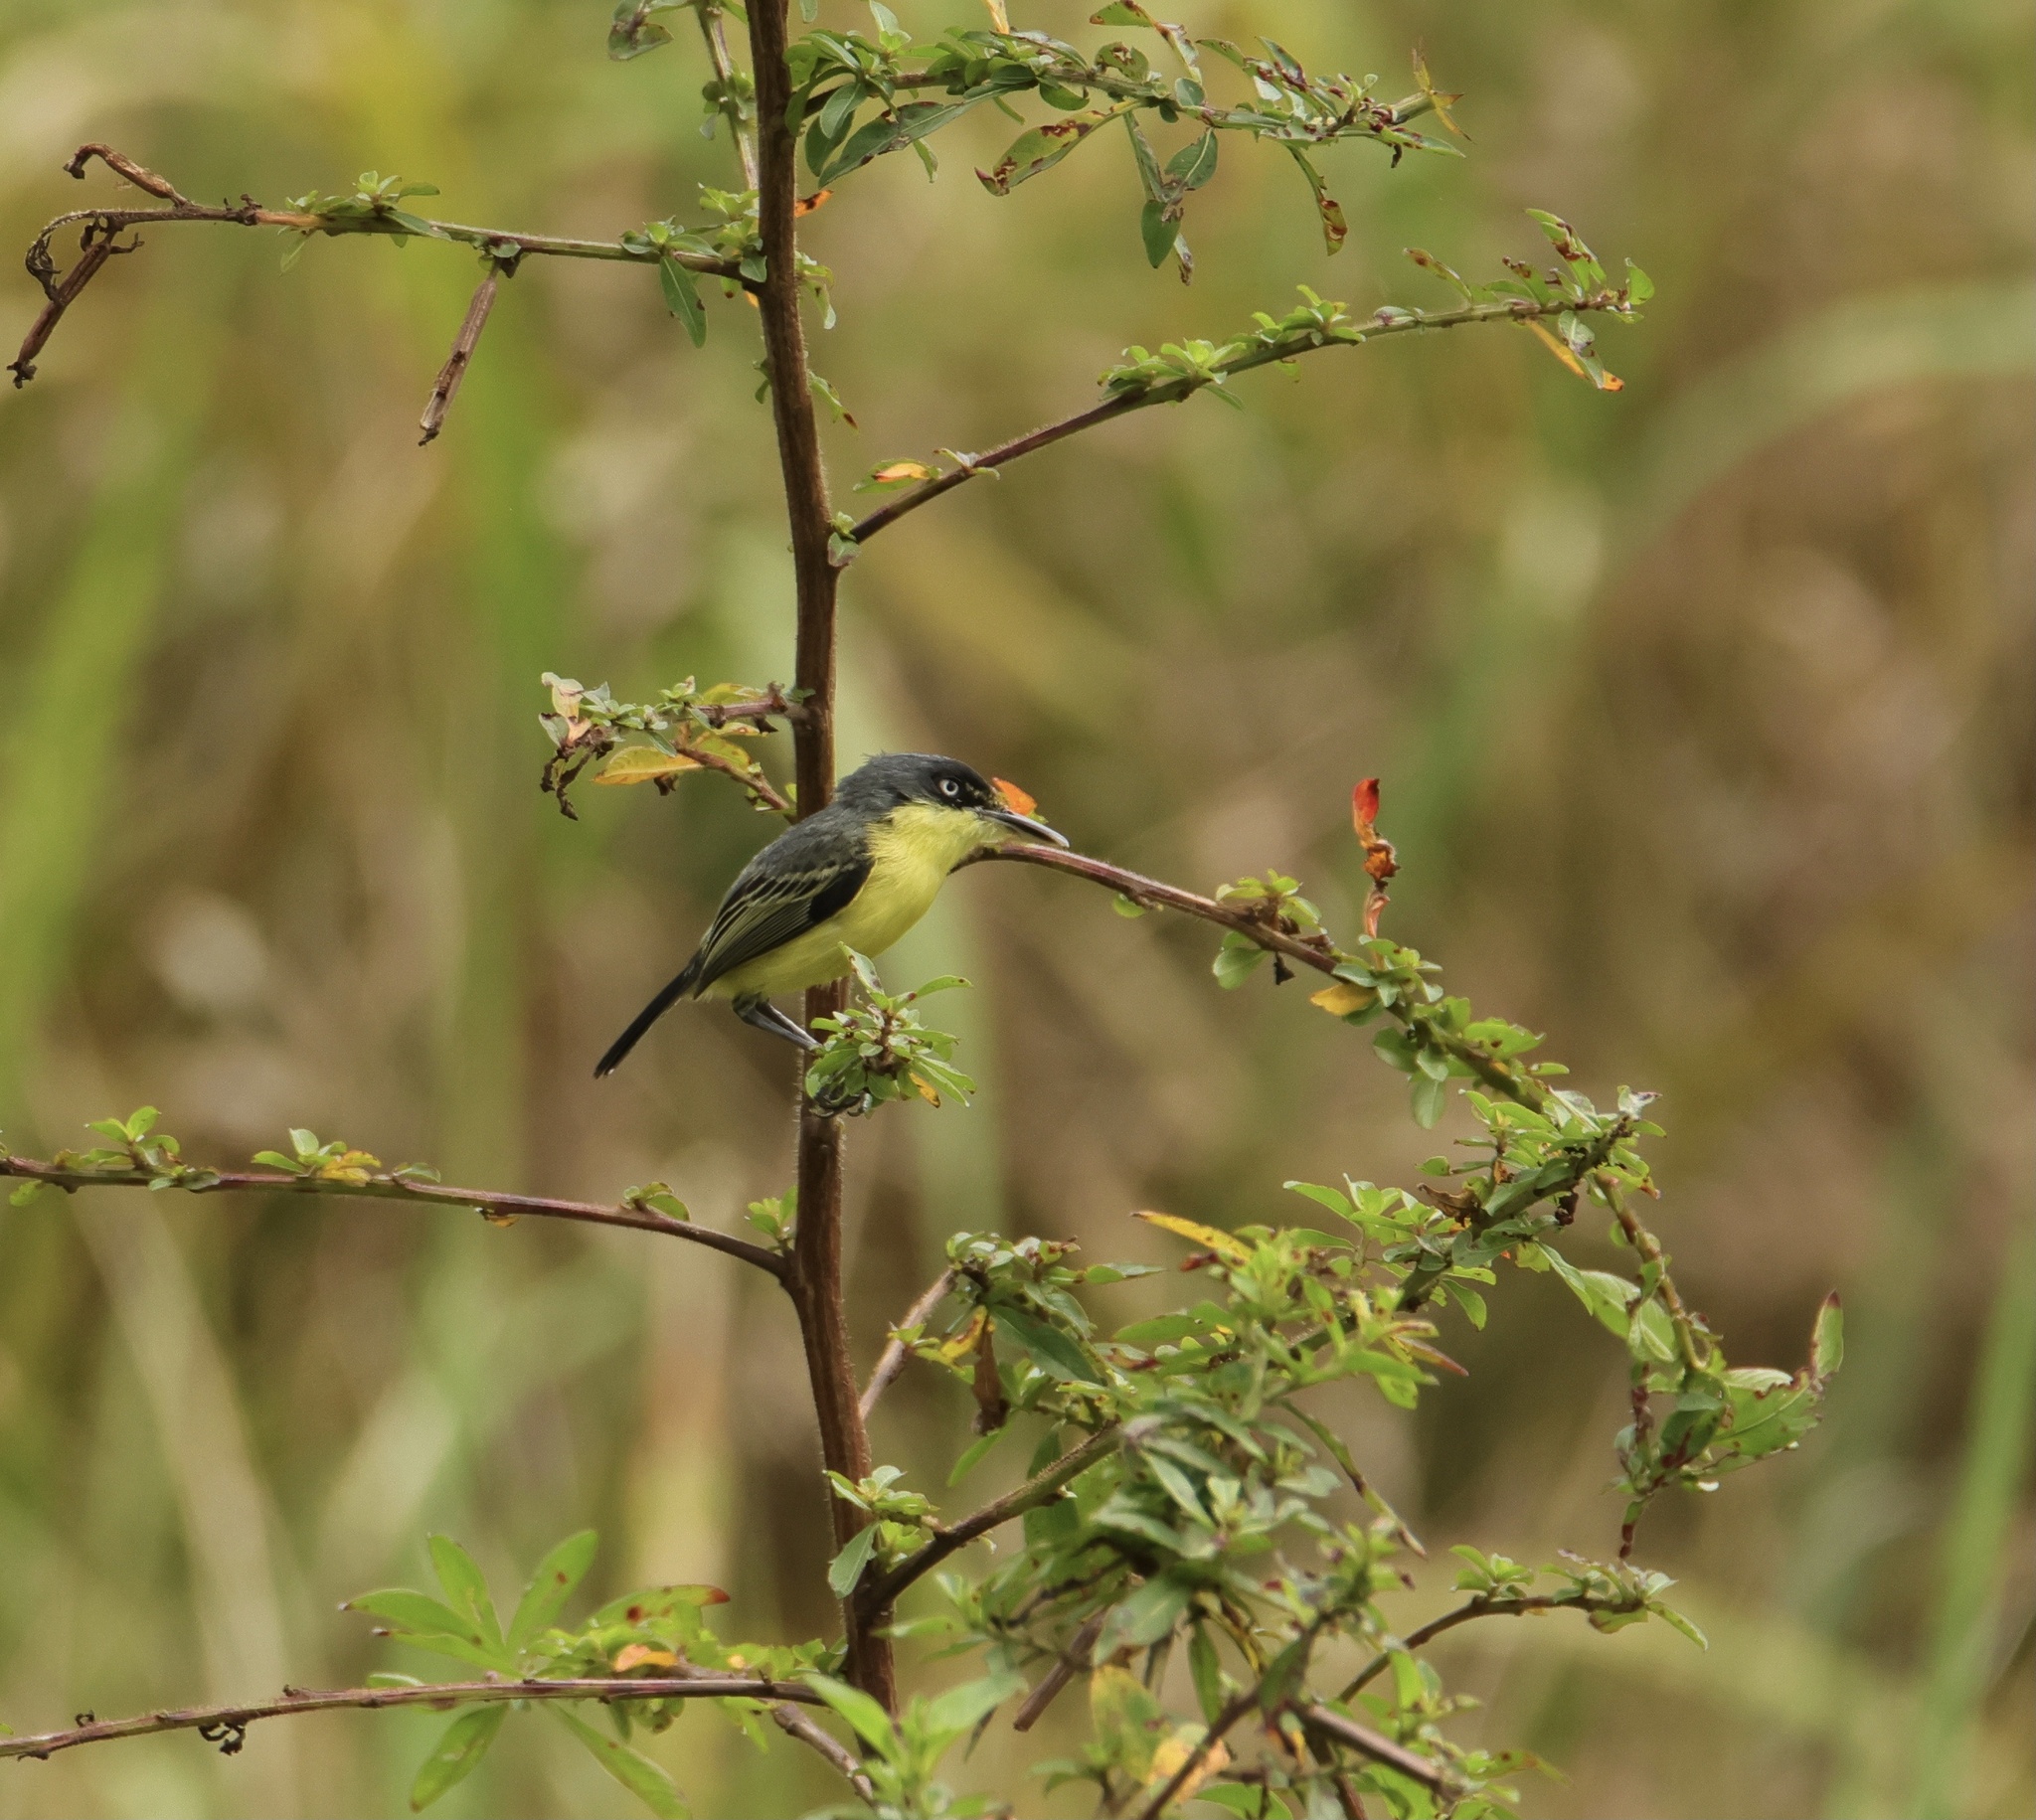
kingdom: Animalia
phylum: Chordata
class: Aves
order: Passeriformes
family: Tyrannidae
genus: Todirostrum
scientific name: Todirostrum cinereum
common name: Common tody-flycatcher
